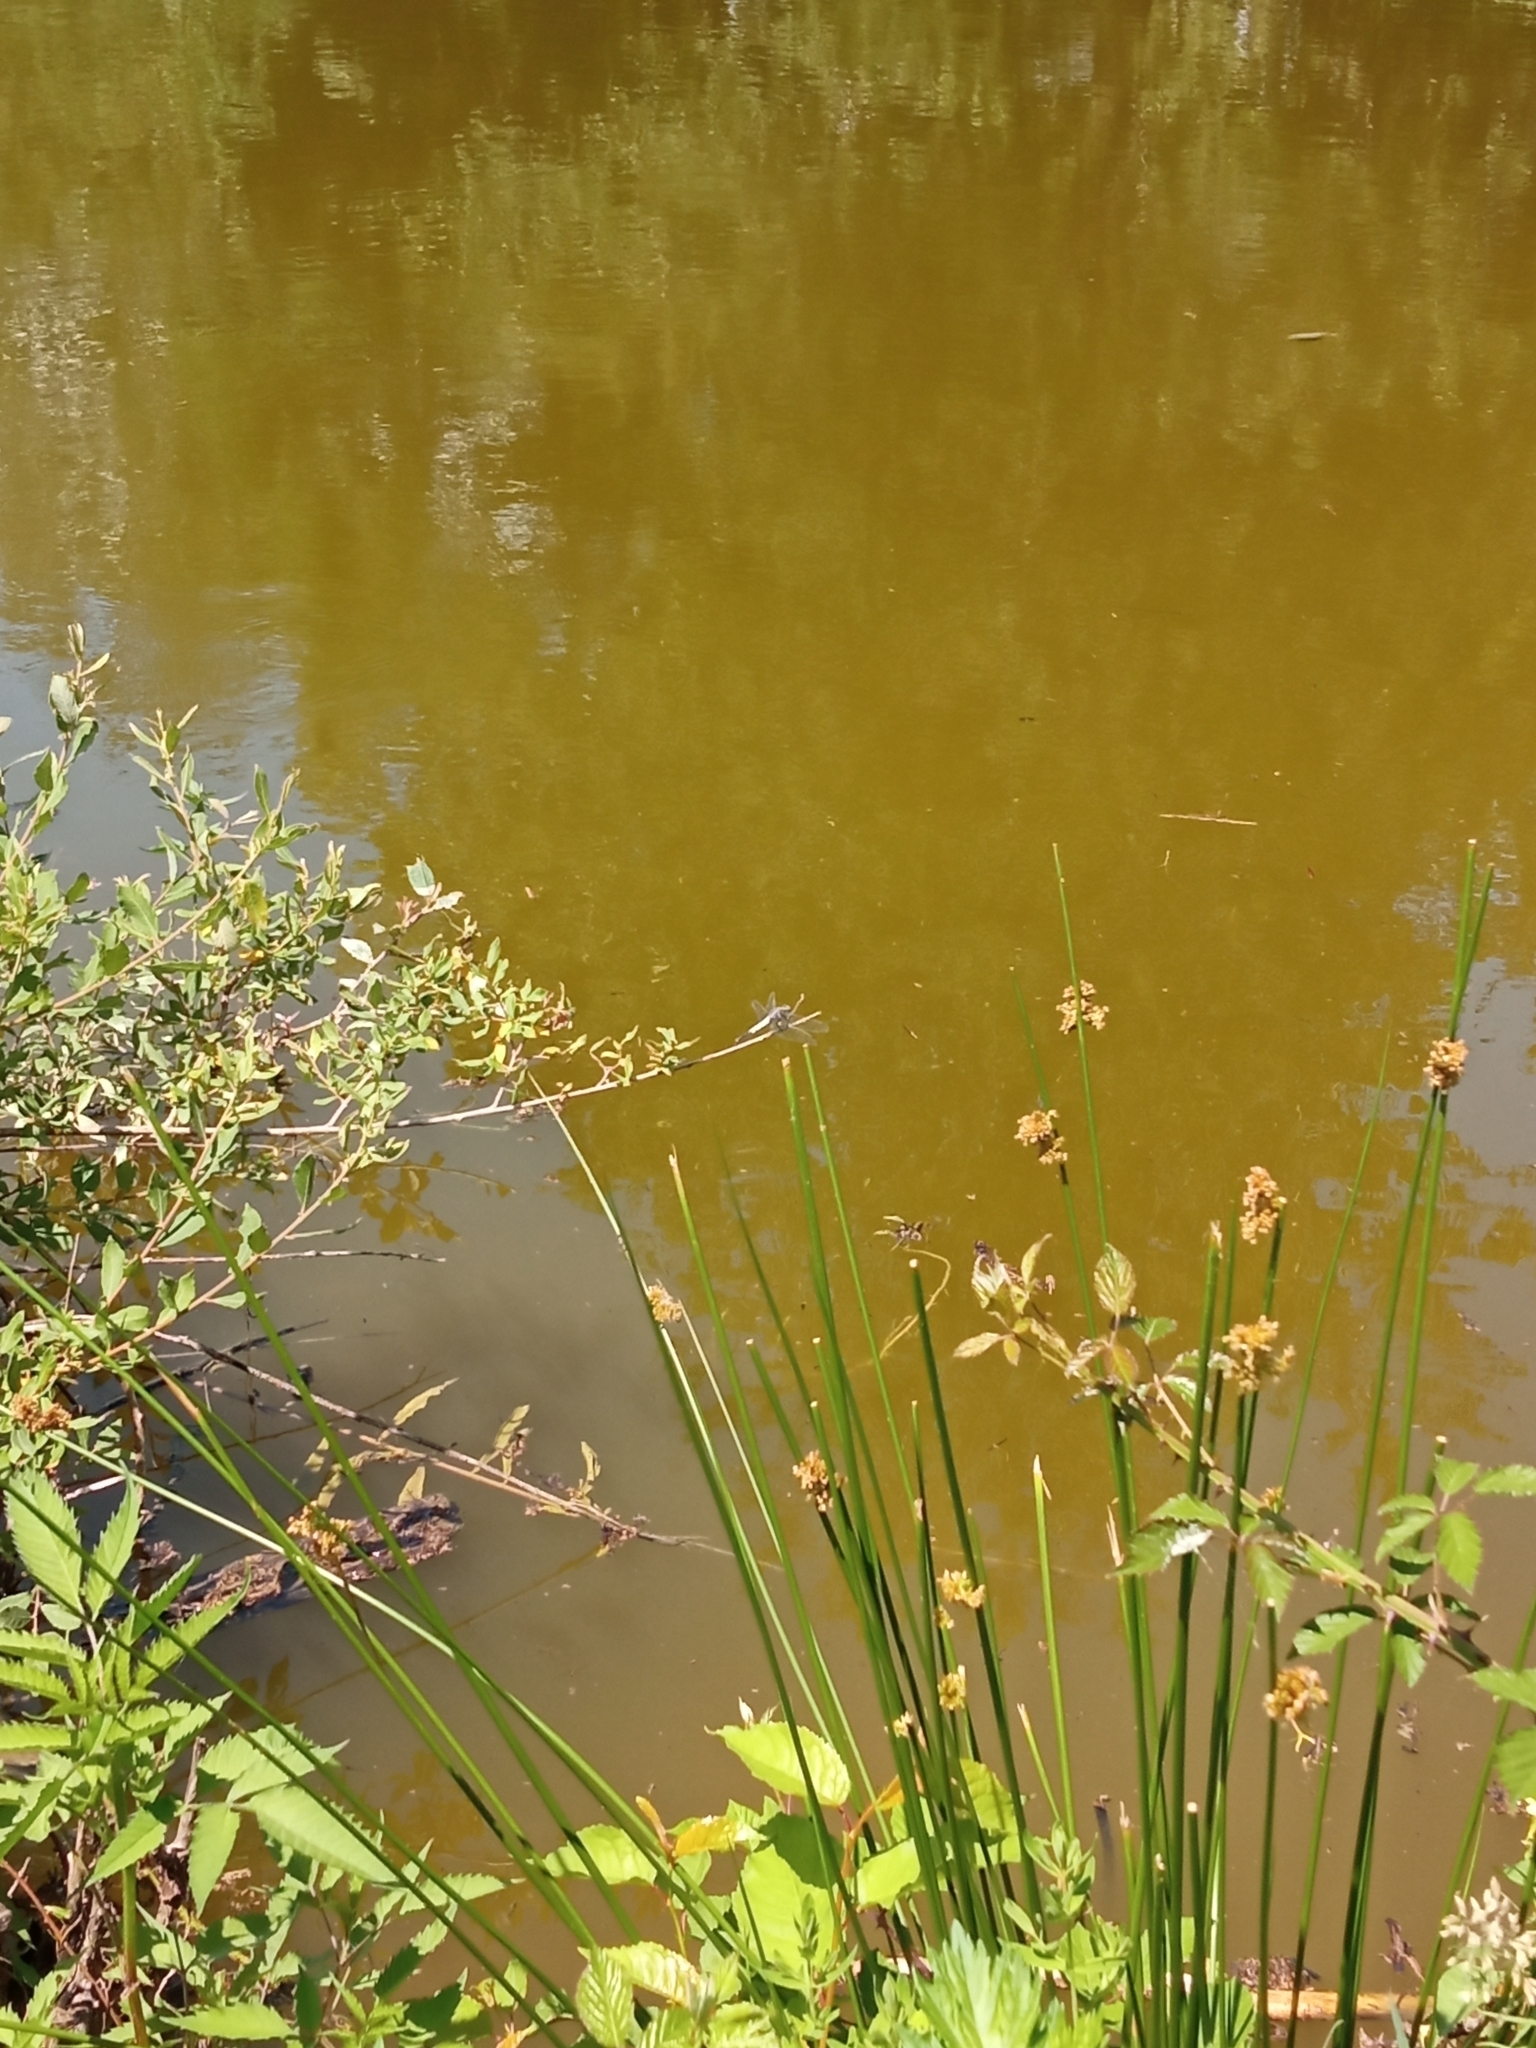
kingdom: Animalia
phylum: Arthropoda
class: Insecta
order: Odonata
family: Libellulidae
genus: Orthetrum
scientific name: Orthetrum albistylum
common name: White-tailed skimmer
